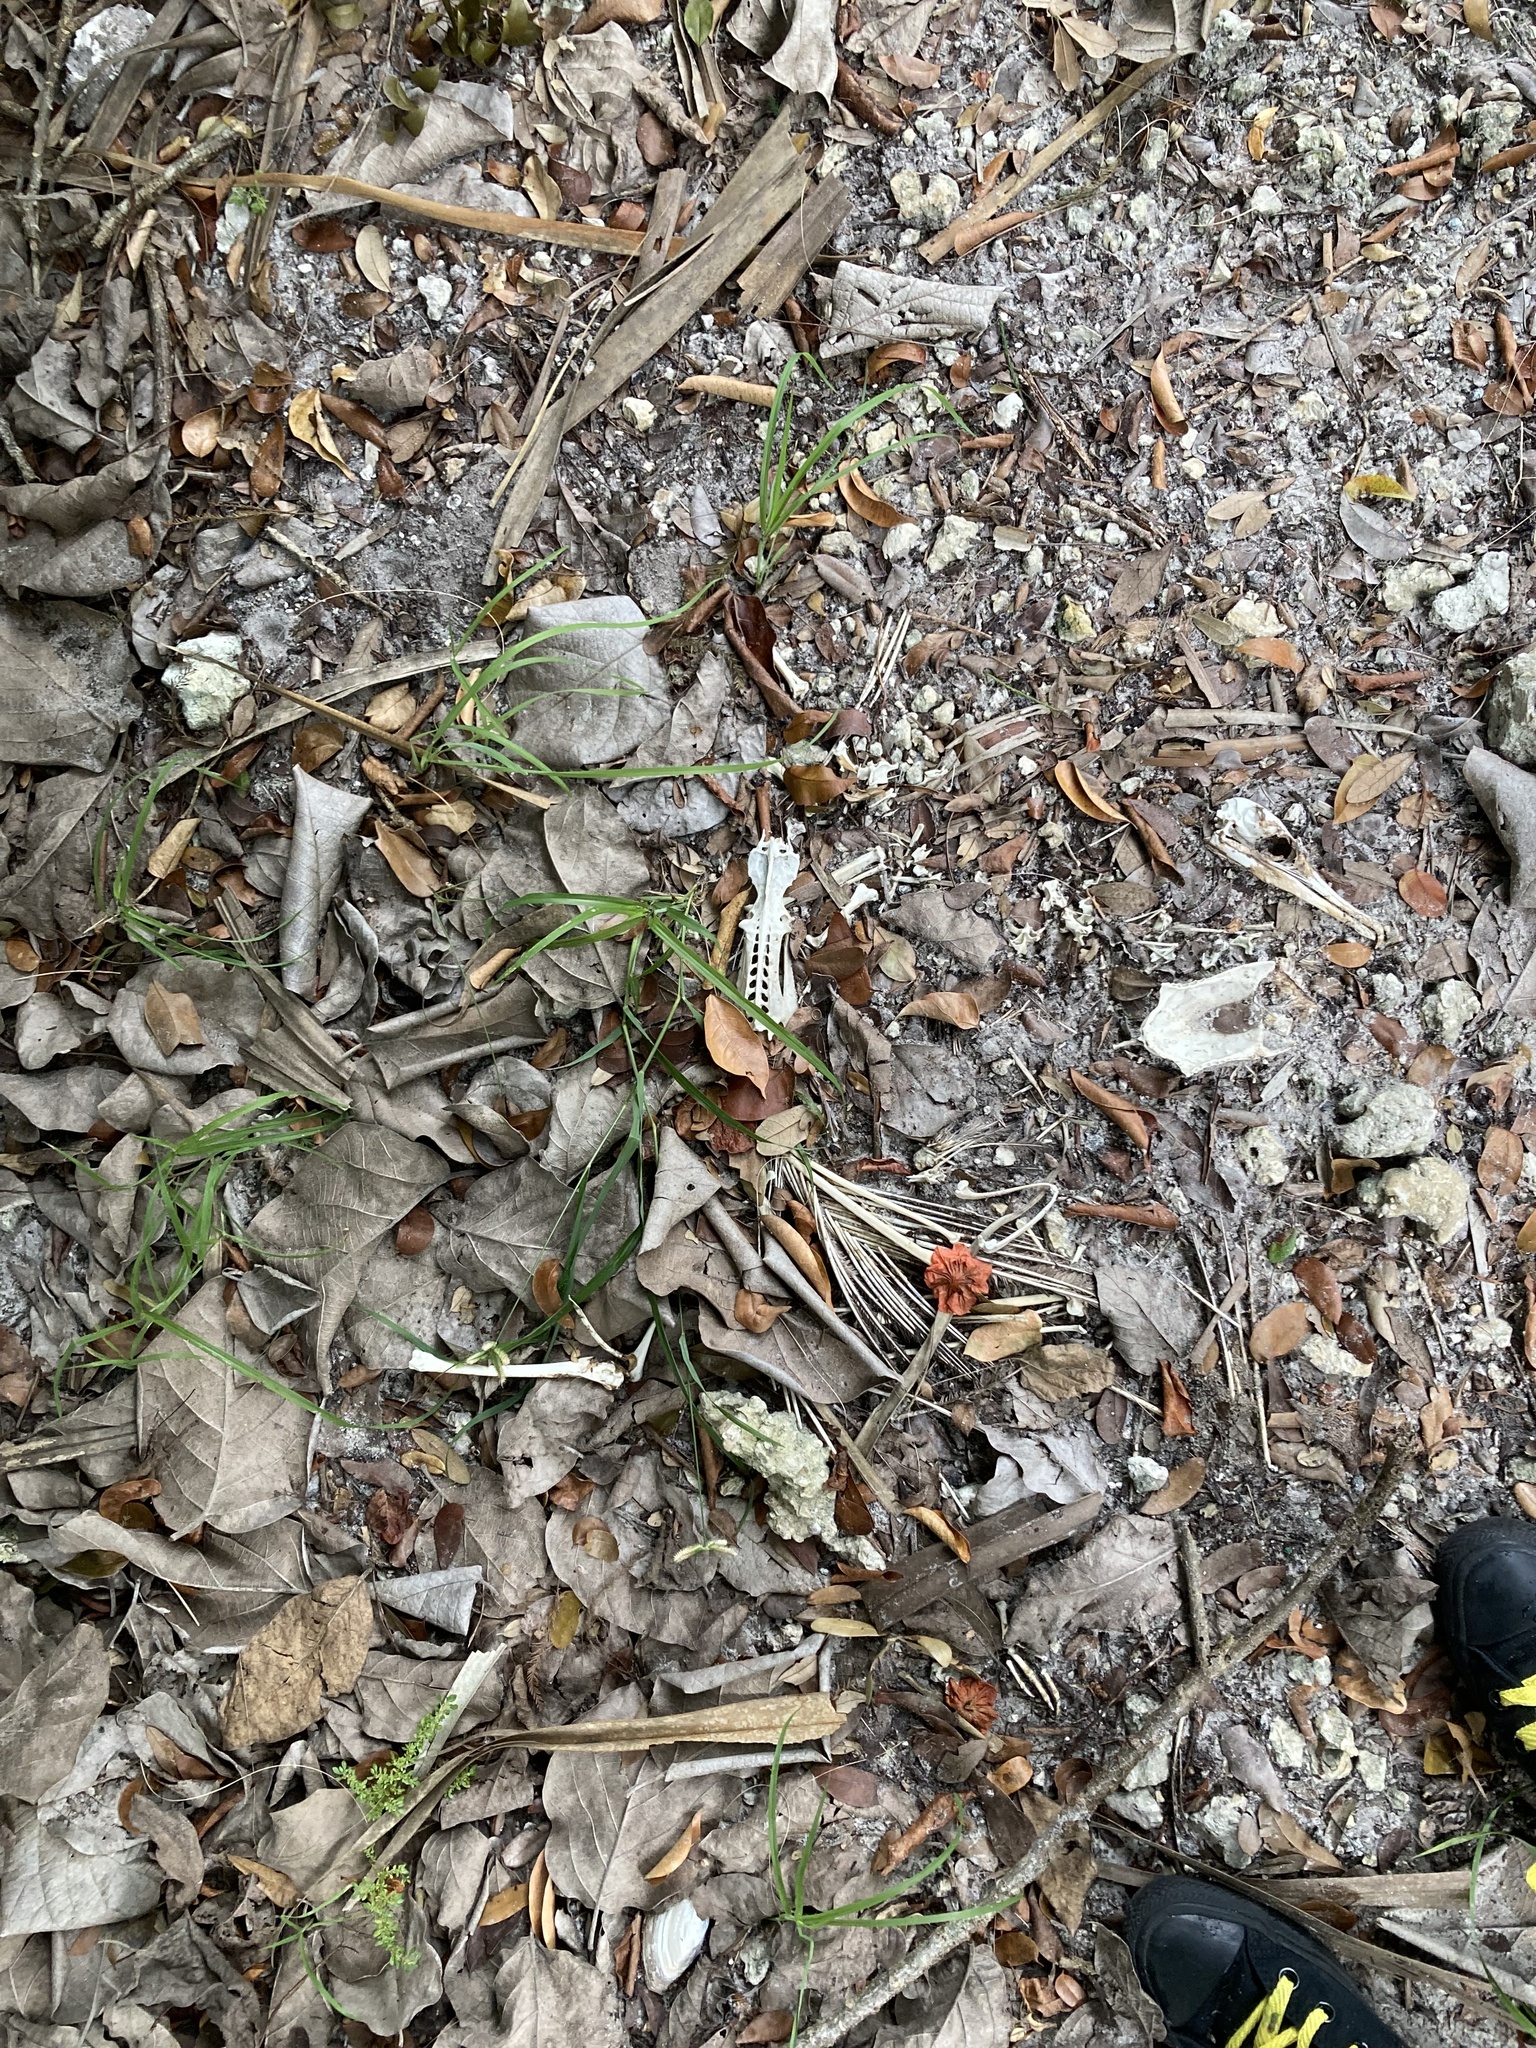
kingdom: Animalia
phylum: Chordata
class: Aves
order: Suliformes
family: Phalacrocoracidae
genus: Phalacrocorax
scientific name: Phalacrocorax auritus
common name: Double-crested cormorant
